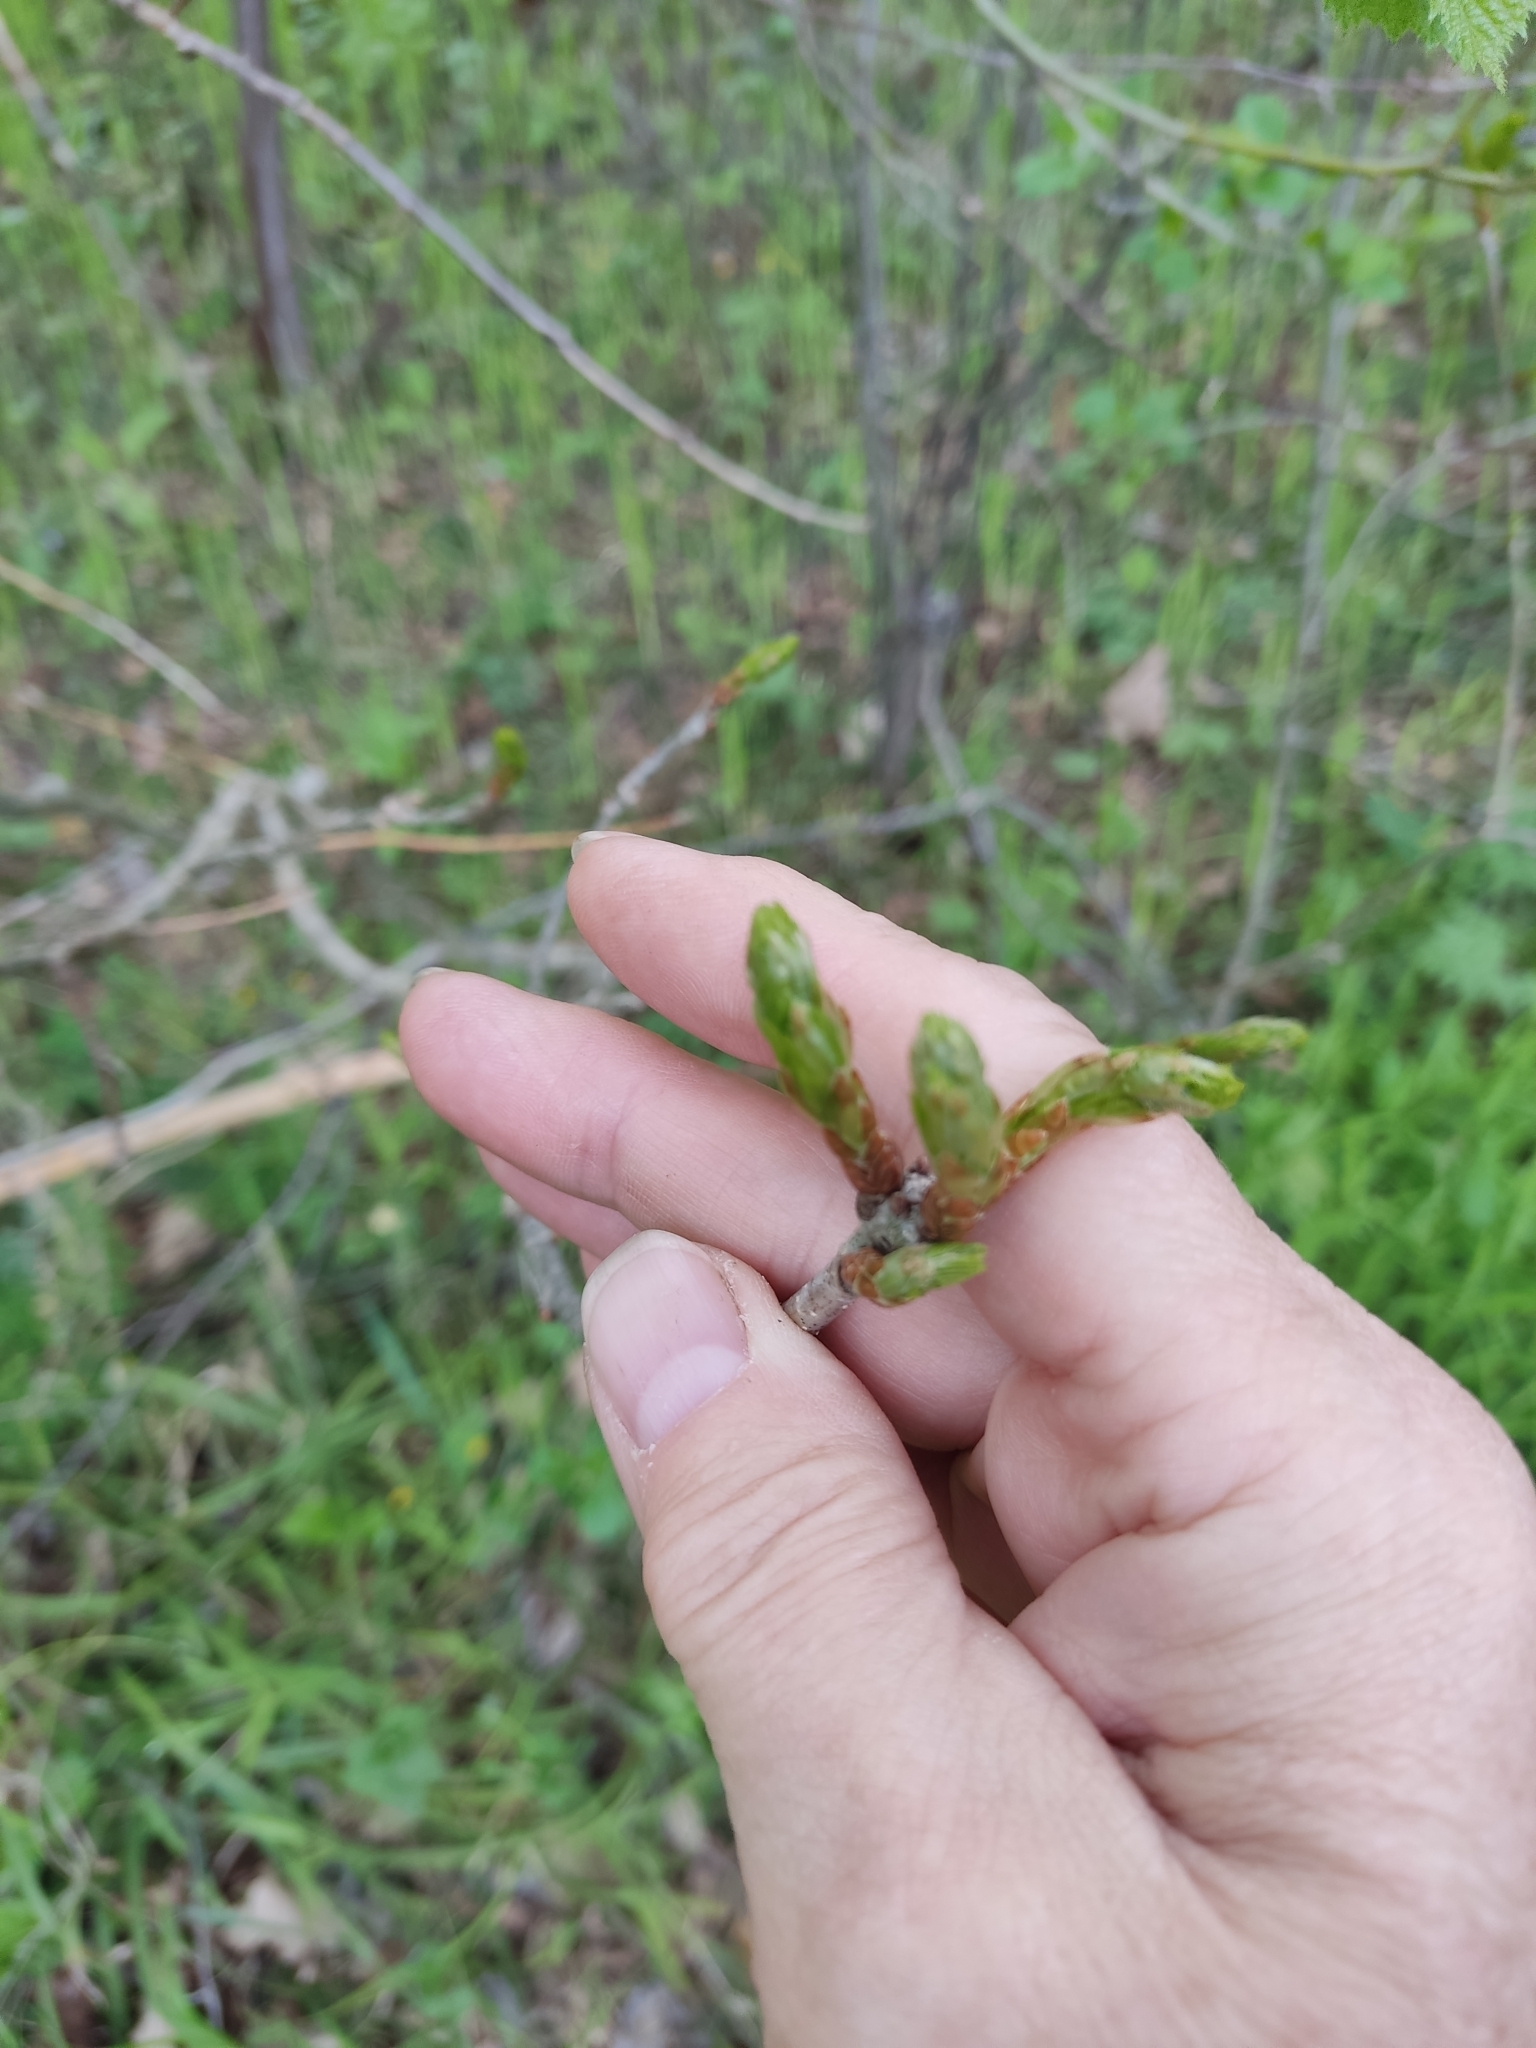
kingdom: Plantae
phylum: Tracheophyta
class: Magnoliopsida
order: Fagales
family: Fagaceae
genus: Quercus
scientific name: Quercus robur
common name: Pedunculate oak
